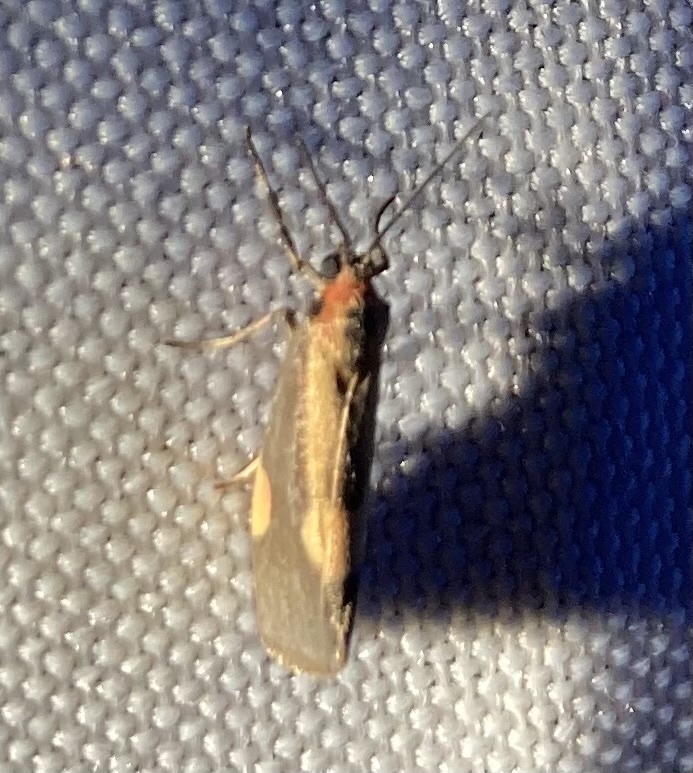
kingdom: Animalia
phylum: Arthropoda
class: Insecta
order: Lepidoptera
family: Erebidae
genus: Cisthene
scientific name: Cisthene packardii
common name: Packard's lichen moth
